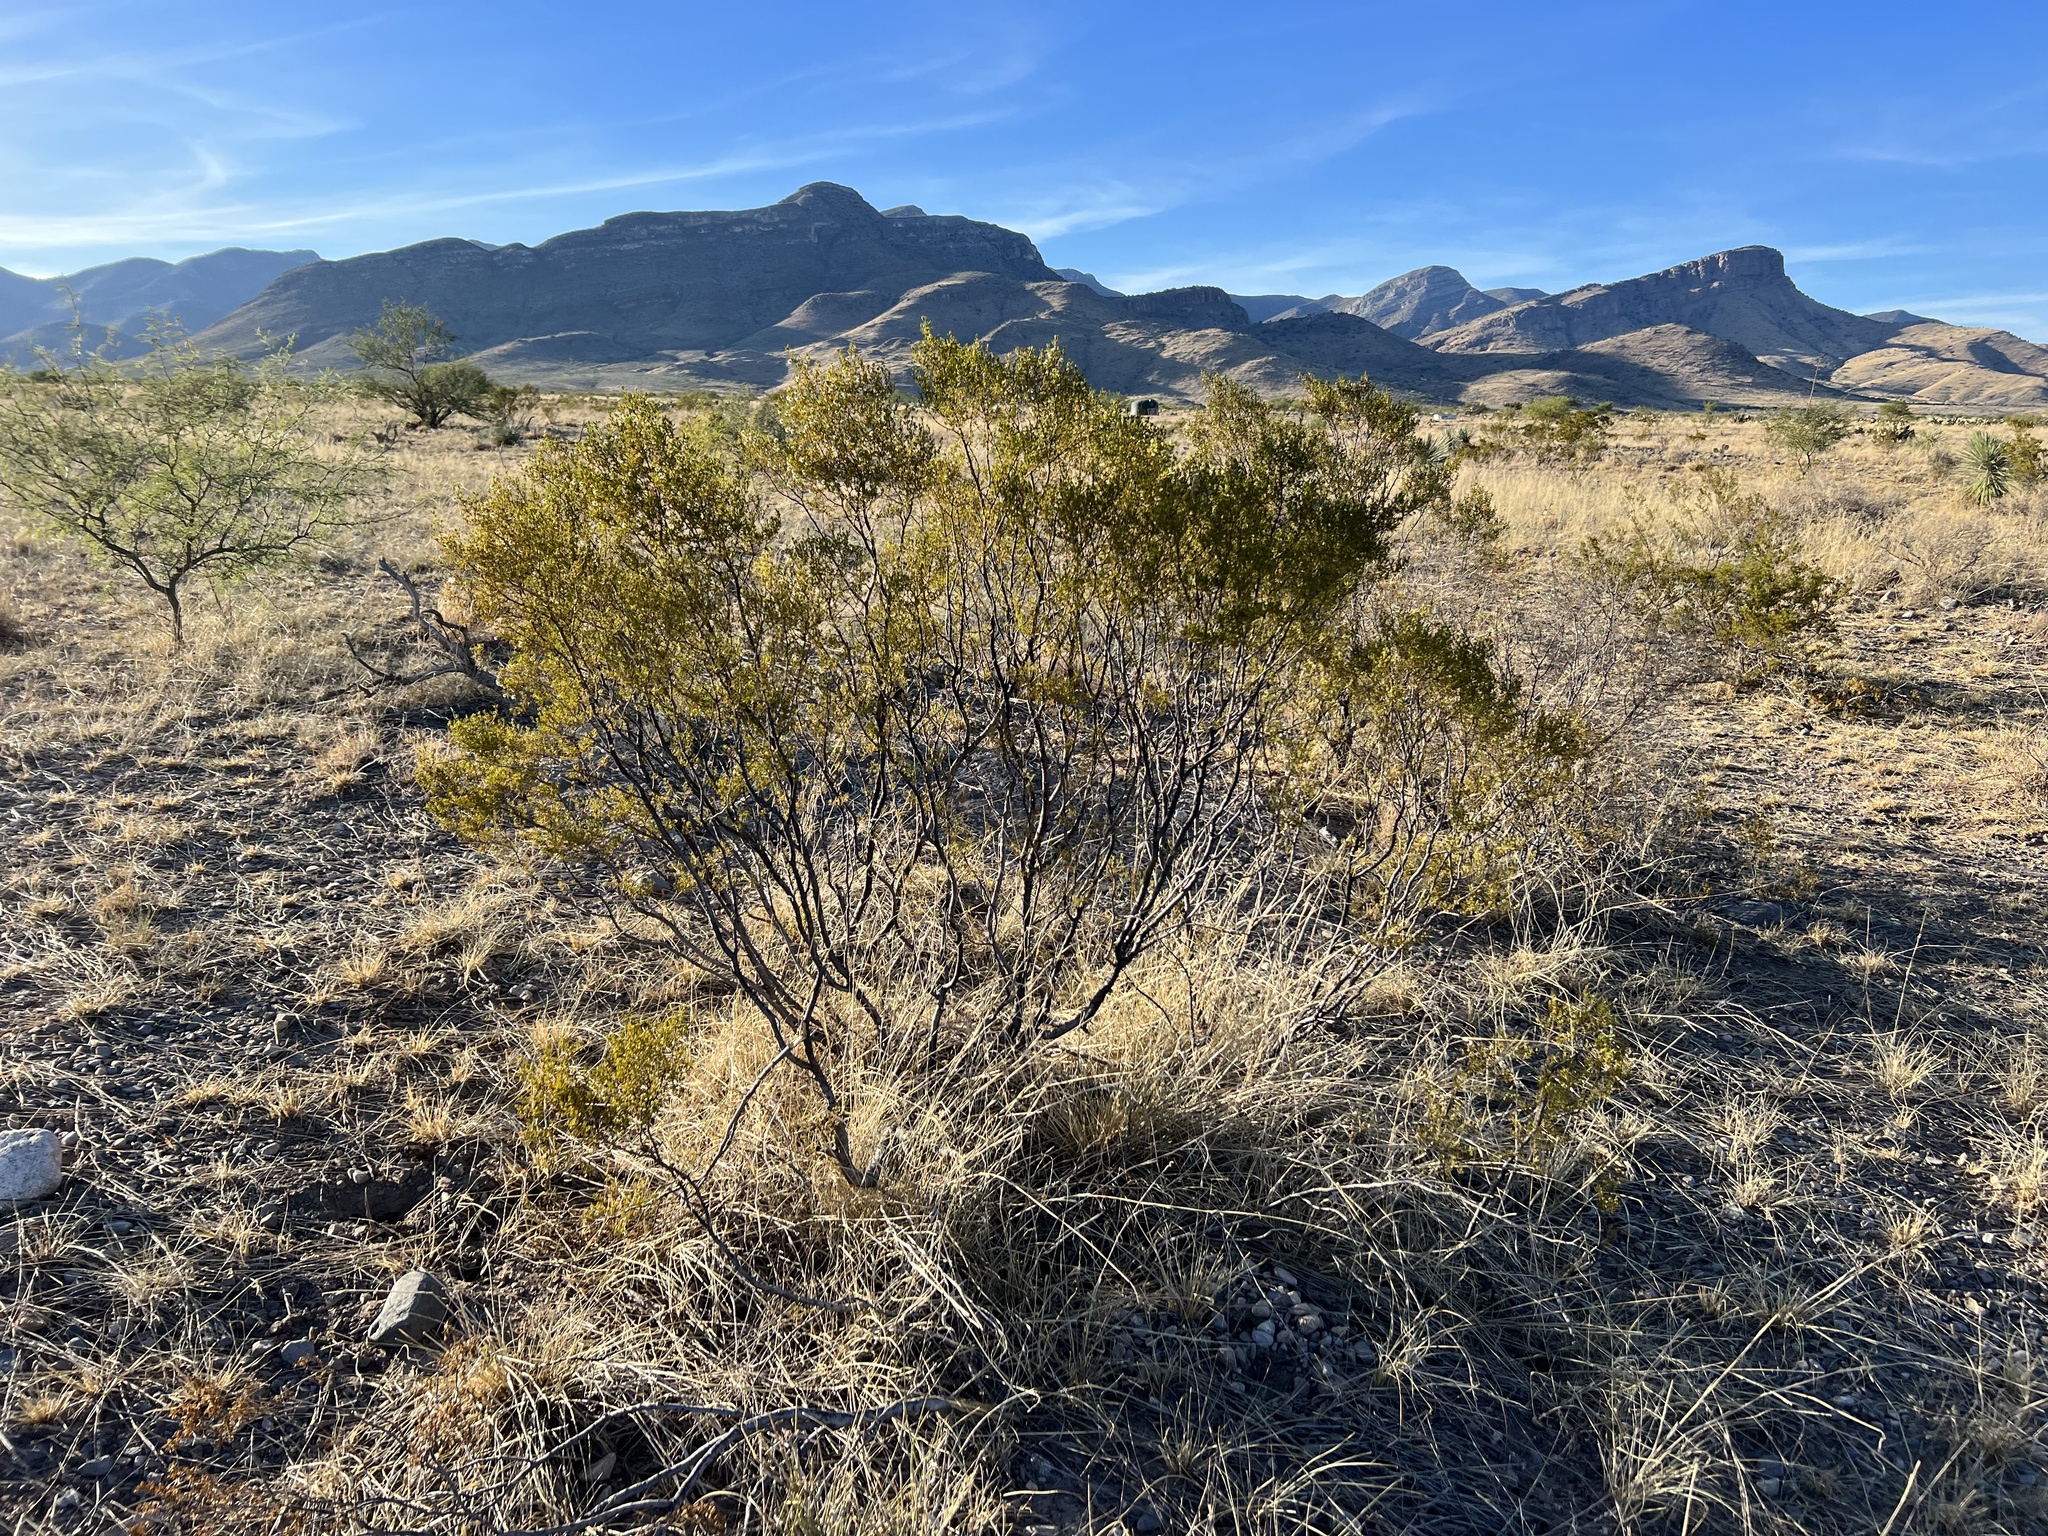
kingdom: Plantae
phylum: Tracheophyta
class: Magnoliopsida
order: Zygophyllales
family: Zygophyllaceae
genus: Larrea
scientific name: Larrea tridentata
